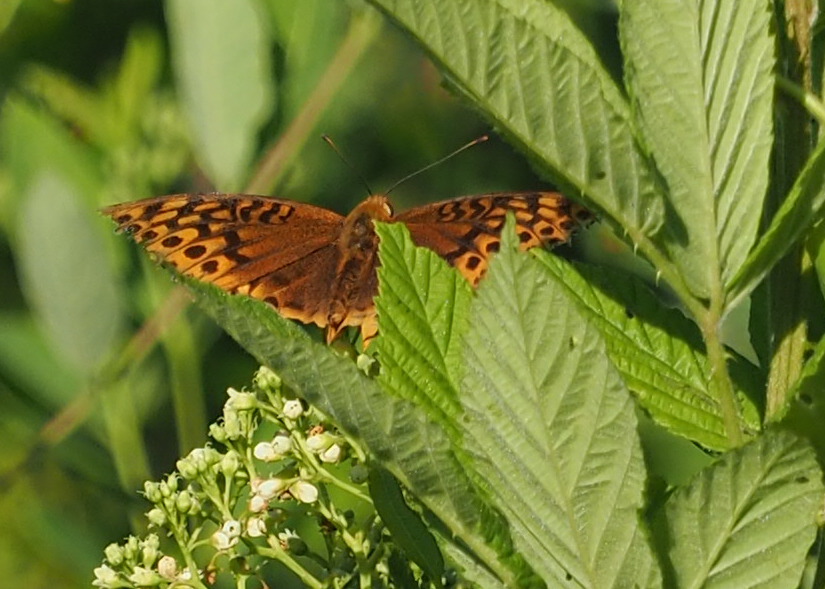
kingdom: Animalia
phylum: Arthropoda
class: Insecta
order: Lepidoptera
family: Nymphalidae
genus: Speyeria
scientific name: Speyeria cybele
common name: Great spangled fritillary
